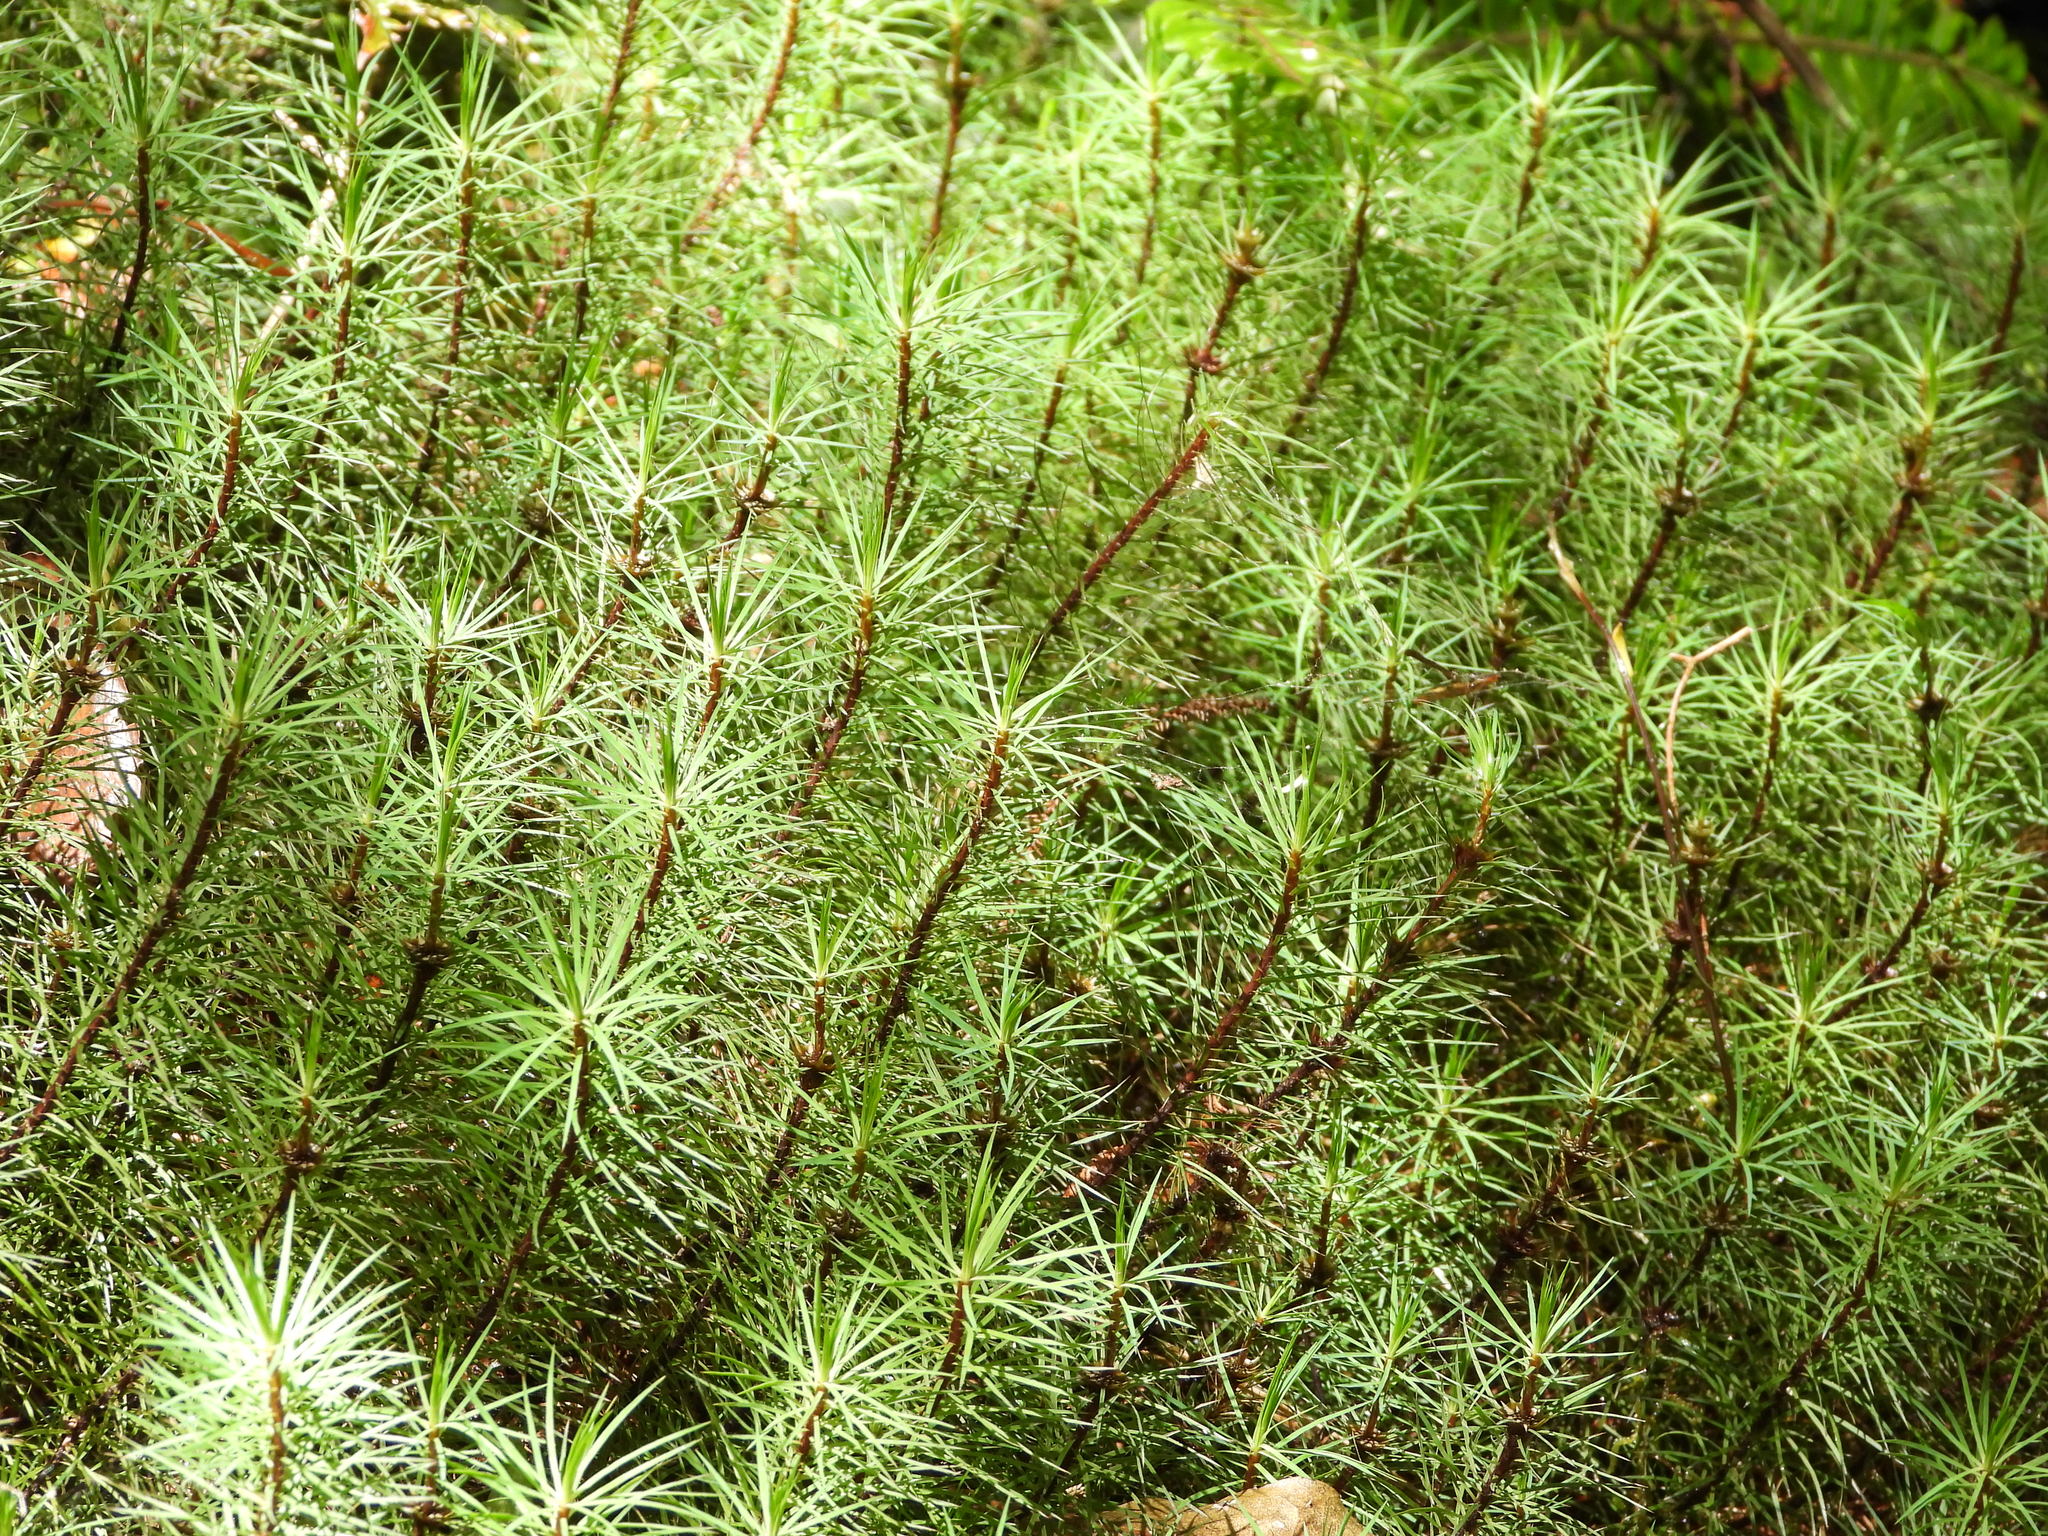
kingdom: Plantae
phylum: Bryophyta
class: Polytrichopsida
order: Polytrichales
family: Polytrichaceae
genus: Dawsonia
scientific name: Dawsonia superba
